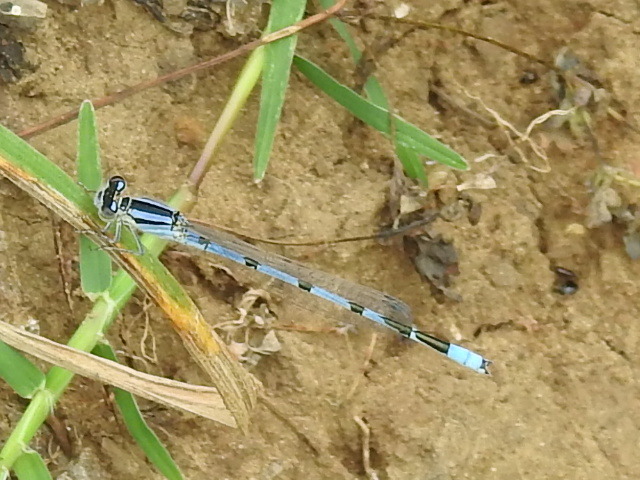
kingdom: Animalia
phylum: Arthropoda
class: Insecta
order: Odonata
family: Coenagrionidae
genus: Enallagma
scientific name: Enallagma civile
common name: Damselfly
